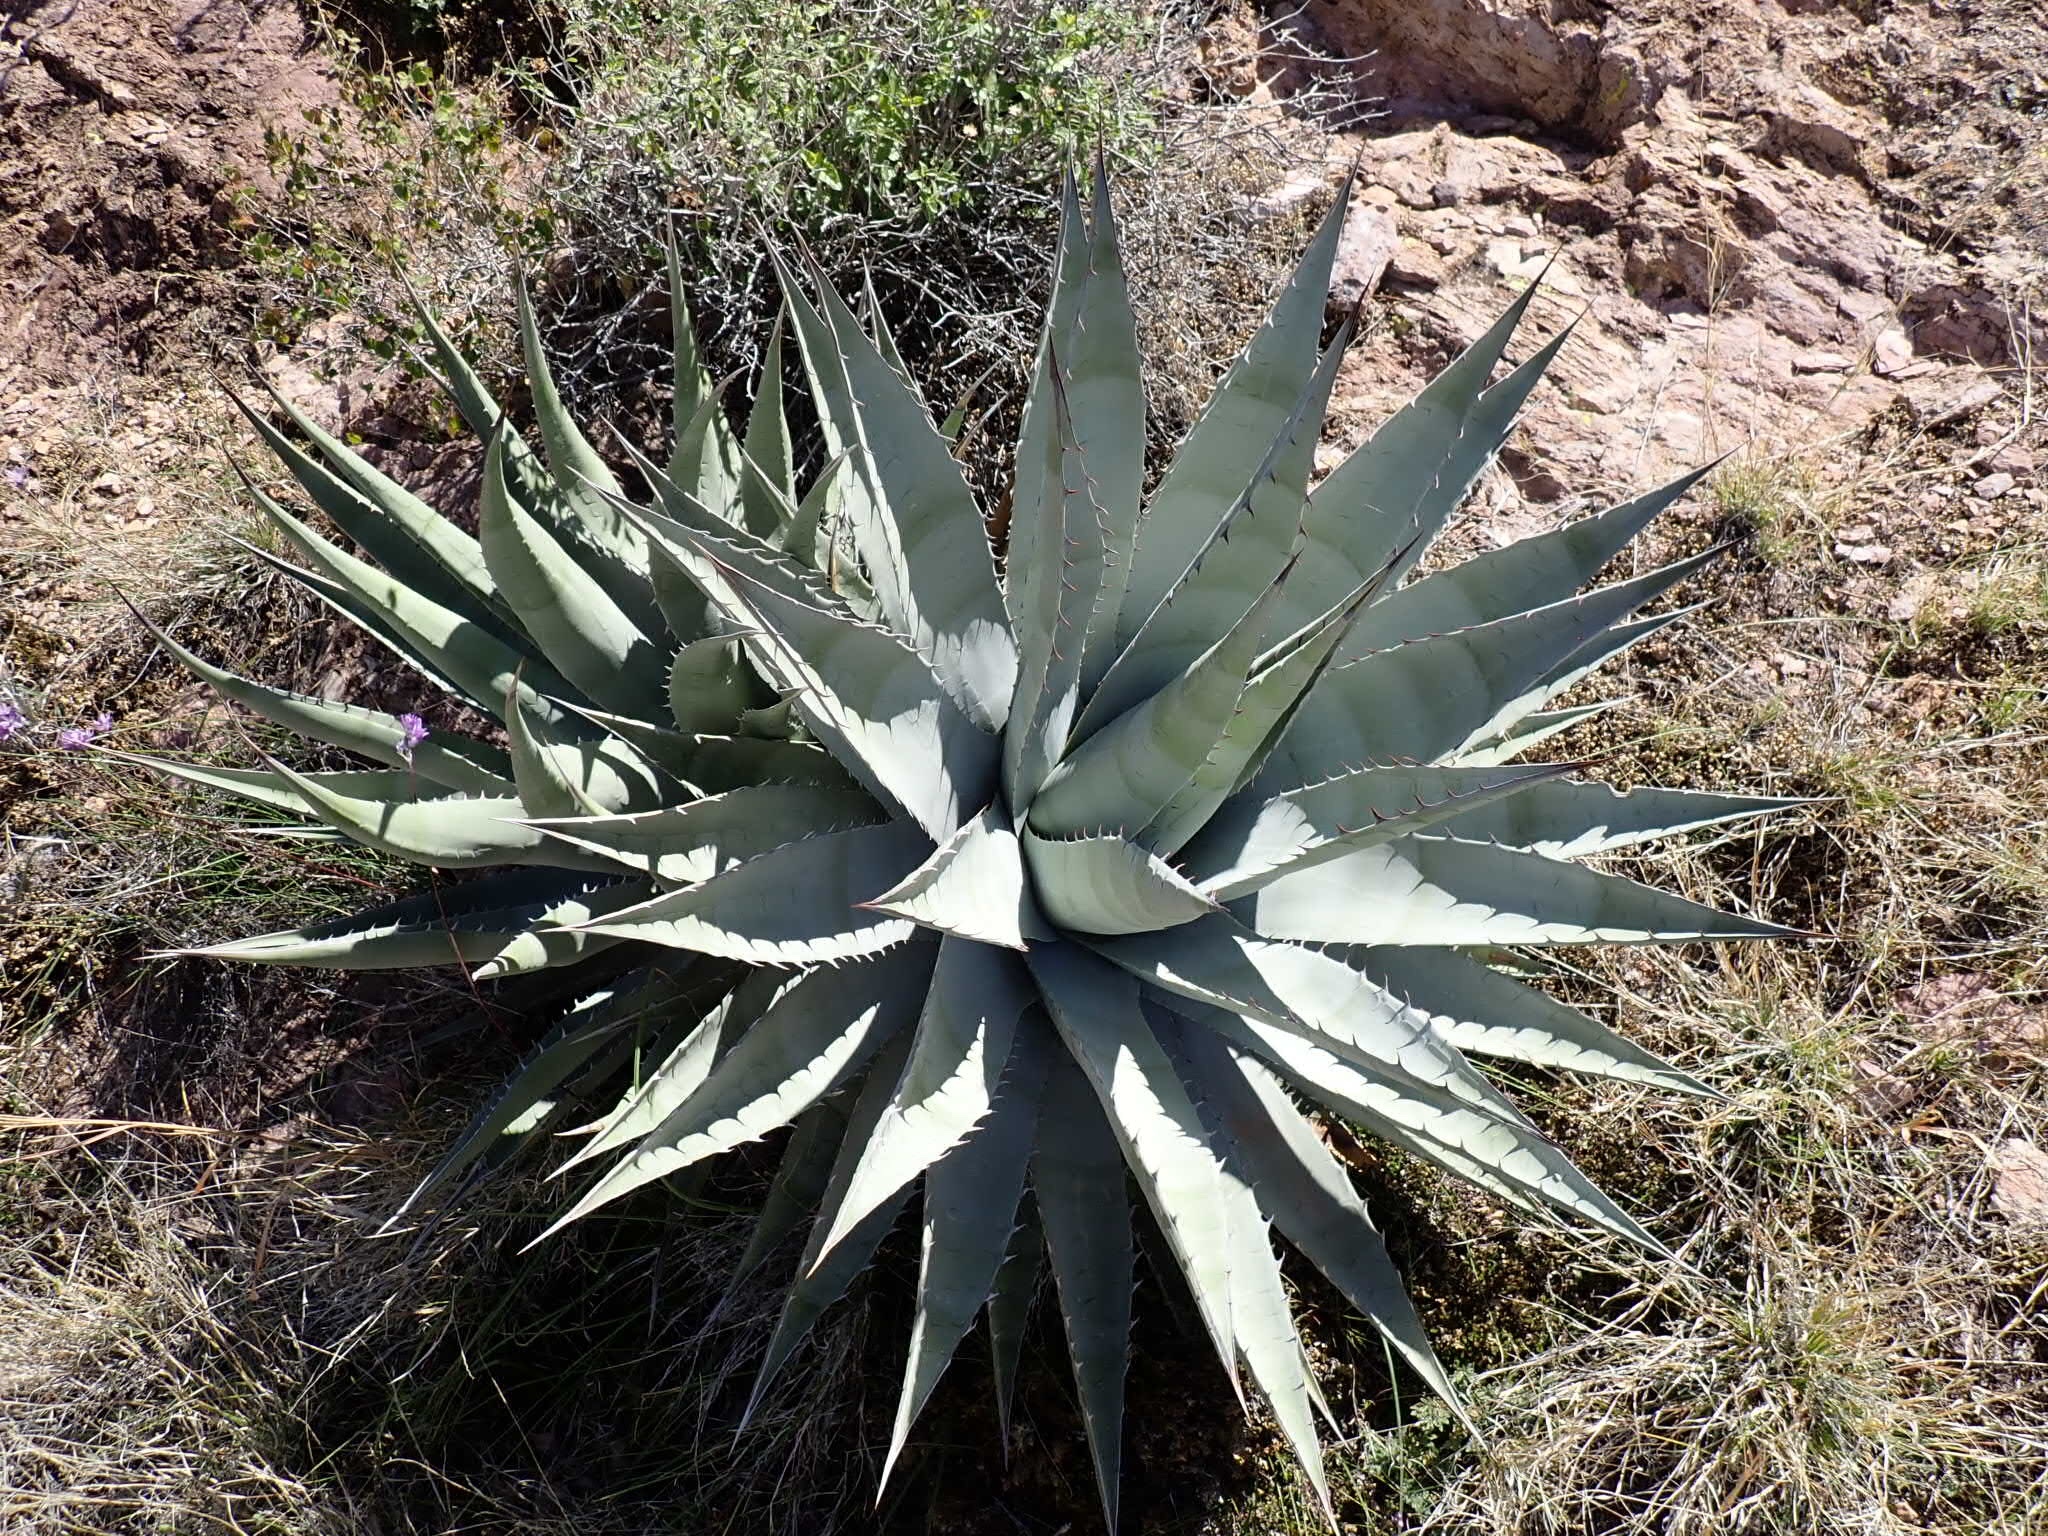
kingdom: Plantae
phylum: Tracheophyta
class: Liliopsida
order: Asparagales
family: Asparagaceae
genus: Agave
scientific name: Agave simplex
